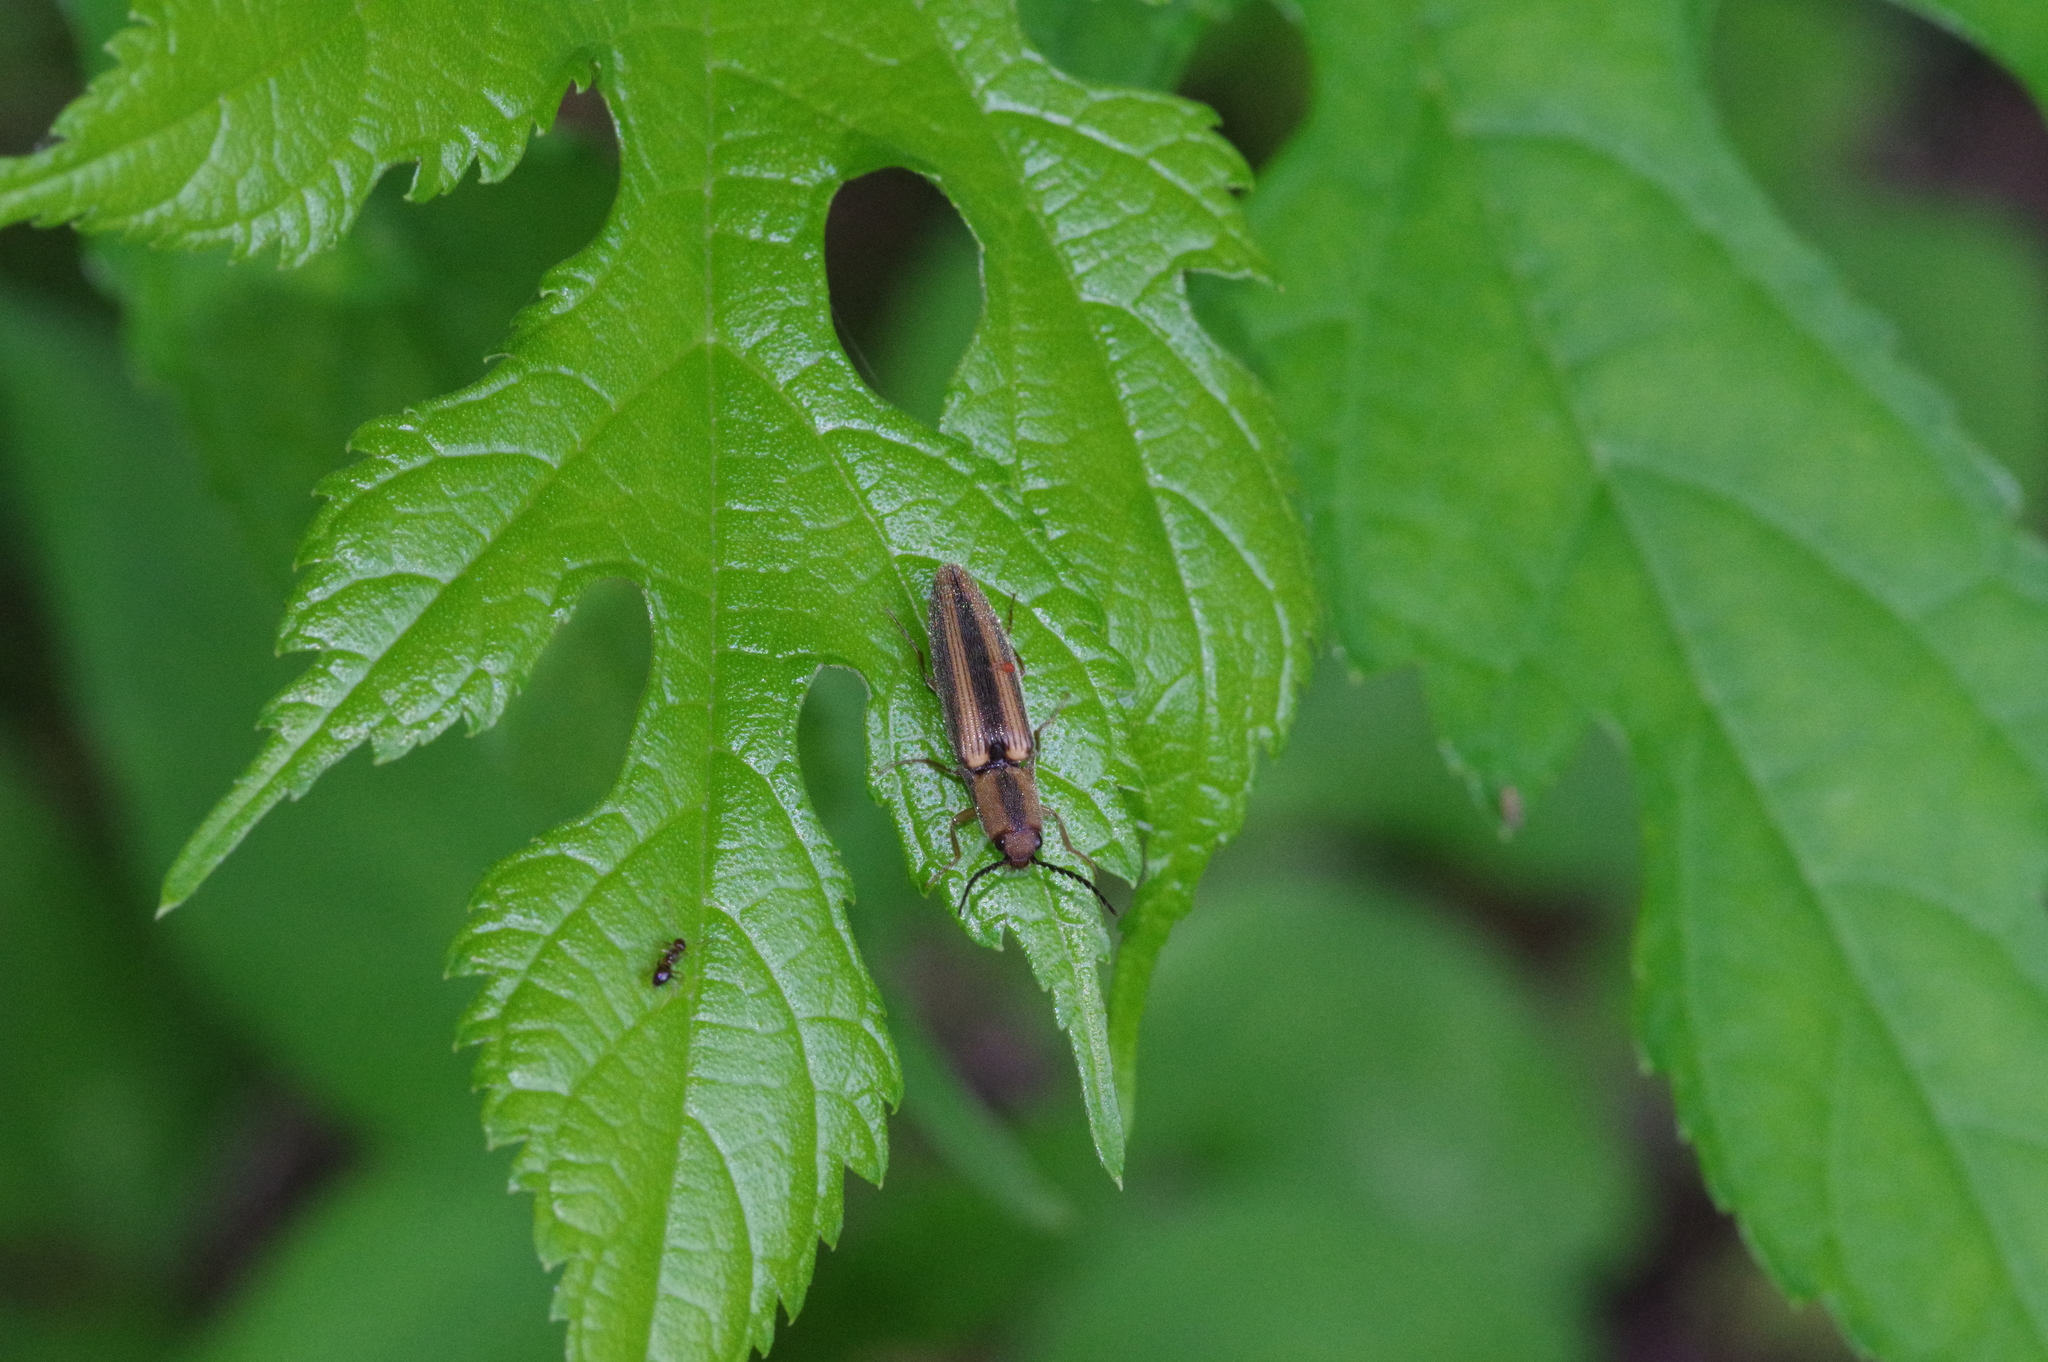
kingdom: Animalia
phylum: Arthropoda
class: Insecta
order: Coleoptera
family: Elateridae
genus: Ludioschema
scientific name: Ludioschema vittiger
